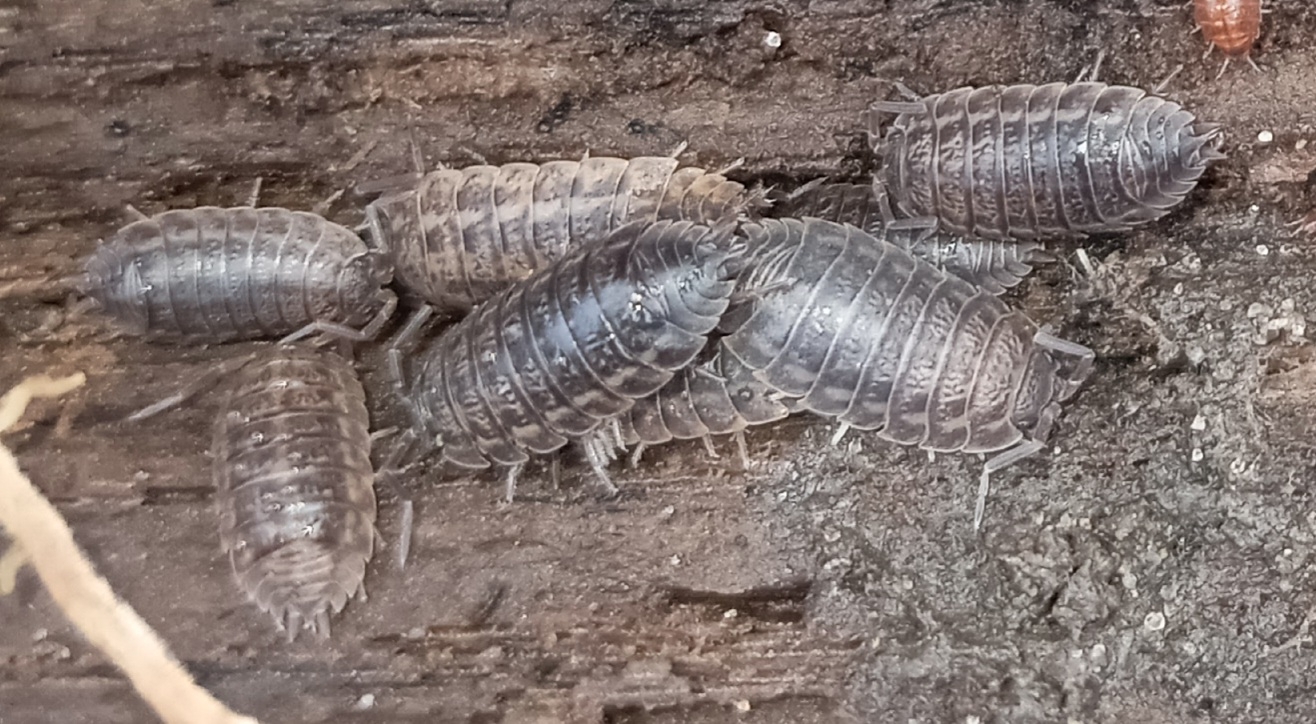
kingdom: Animalia
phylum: Arthropoda
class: Malacostraca
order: Isopoda
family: Trachelipodidae
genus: Trachelipus
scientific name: Trachelipus rathkii
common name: Isopod
